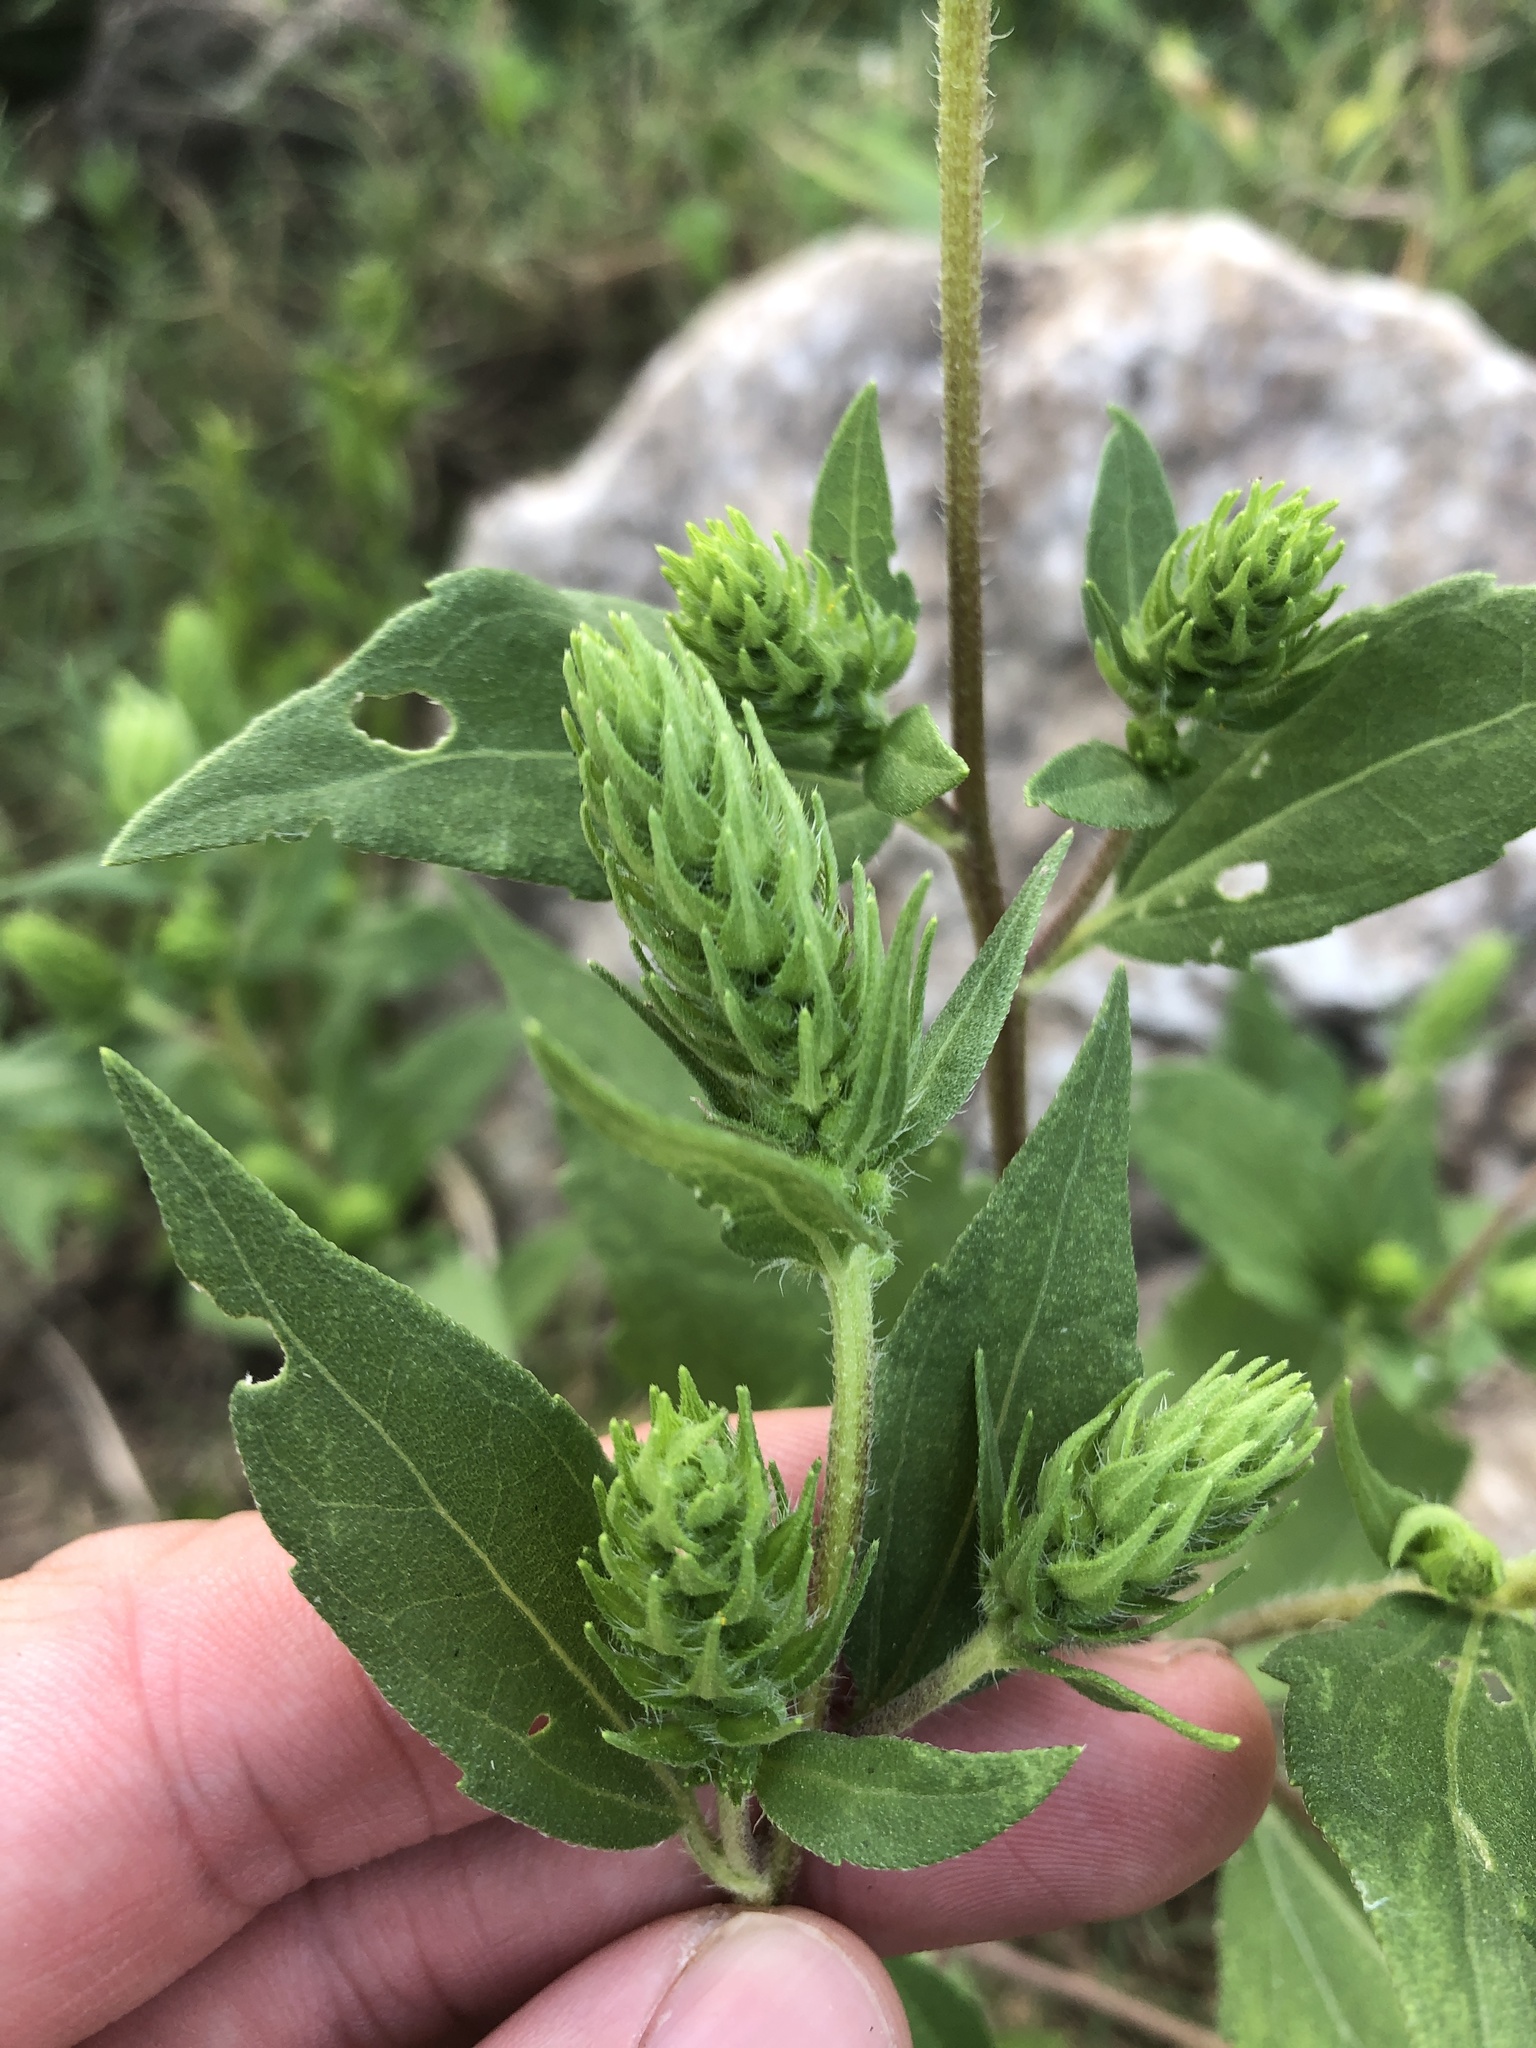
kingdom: Plantae
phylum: Tracheophyta
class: Magnoliopsida
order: Asterales
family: Asteraceae
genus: Iva
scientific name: Iva annua
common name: Marsh-elder
